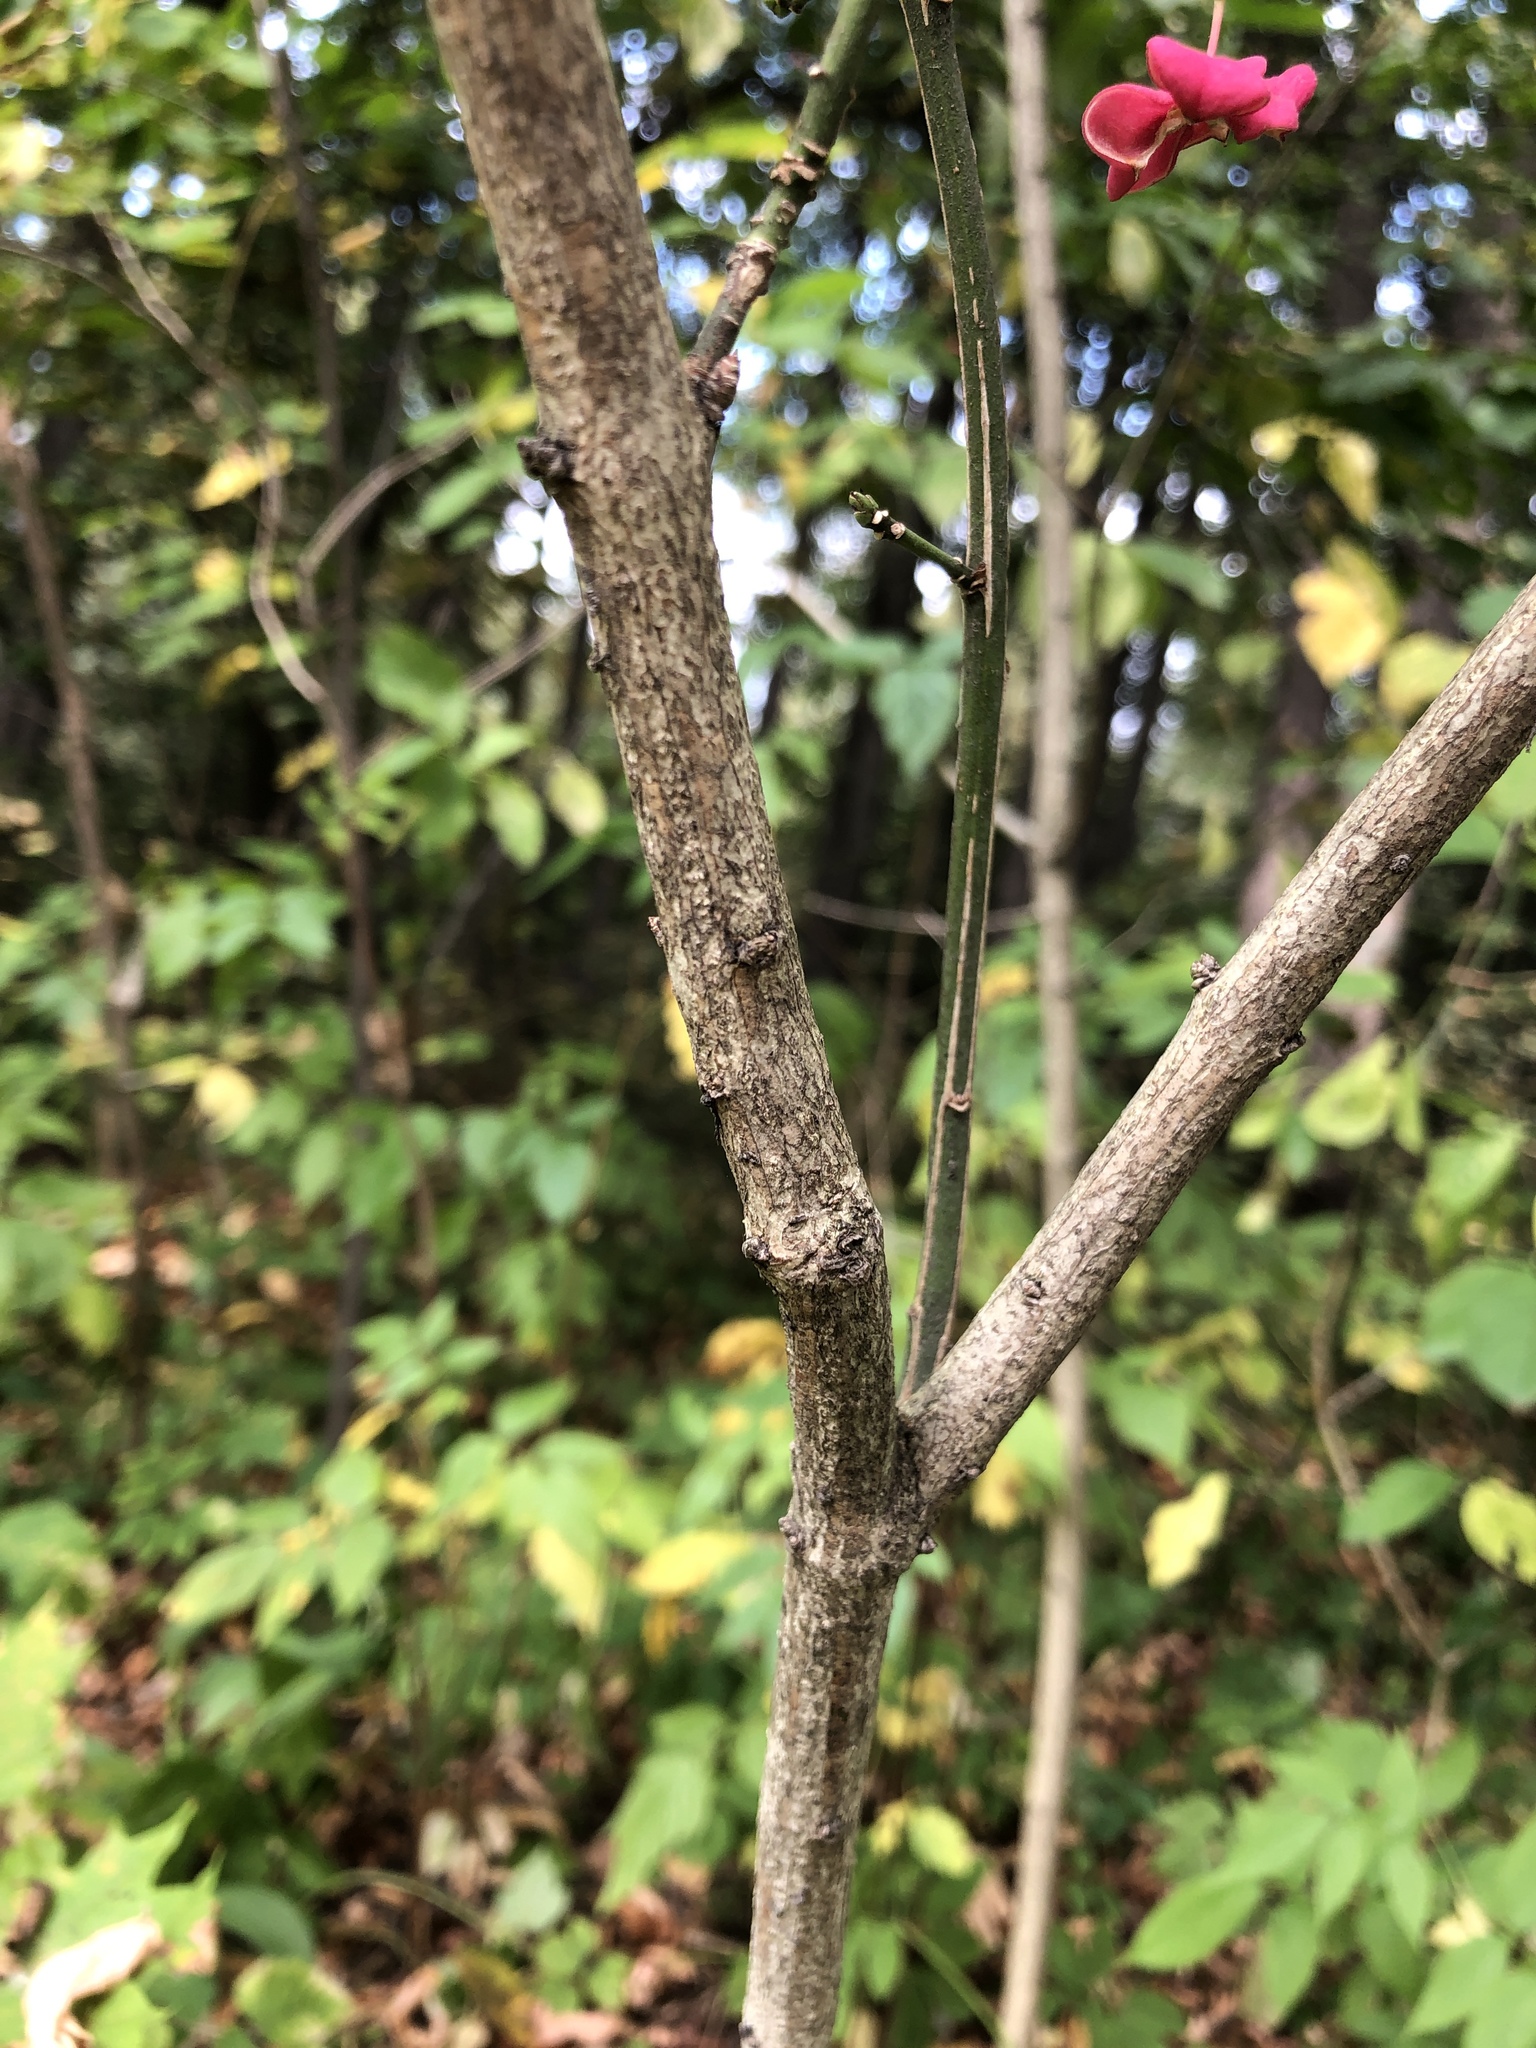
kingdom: Plantae
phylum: Tracheophyta
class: Magnoliopsida
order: Celastrales
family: Celastraceae
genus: Euonymus
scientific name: Euonymus europaeus
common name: Spindle
